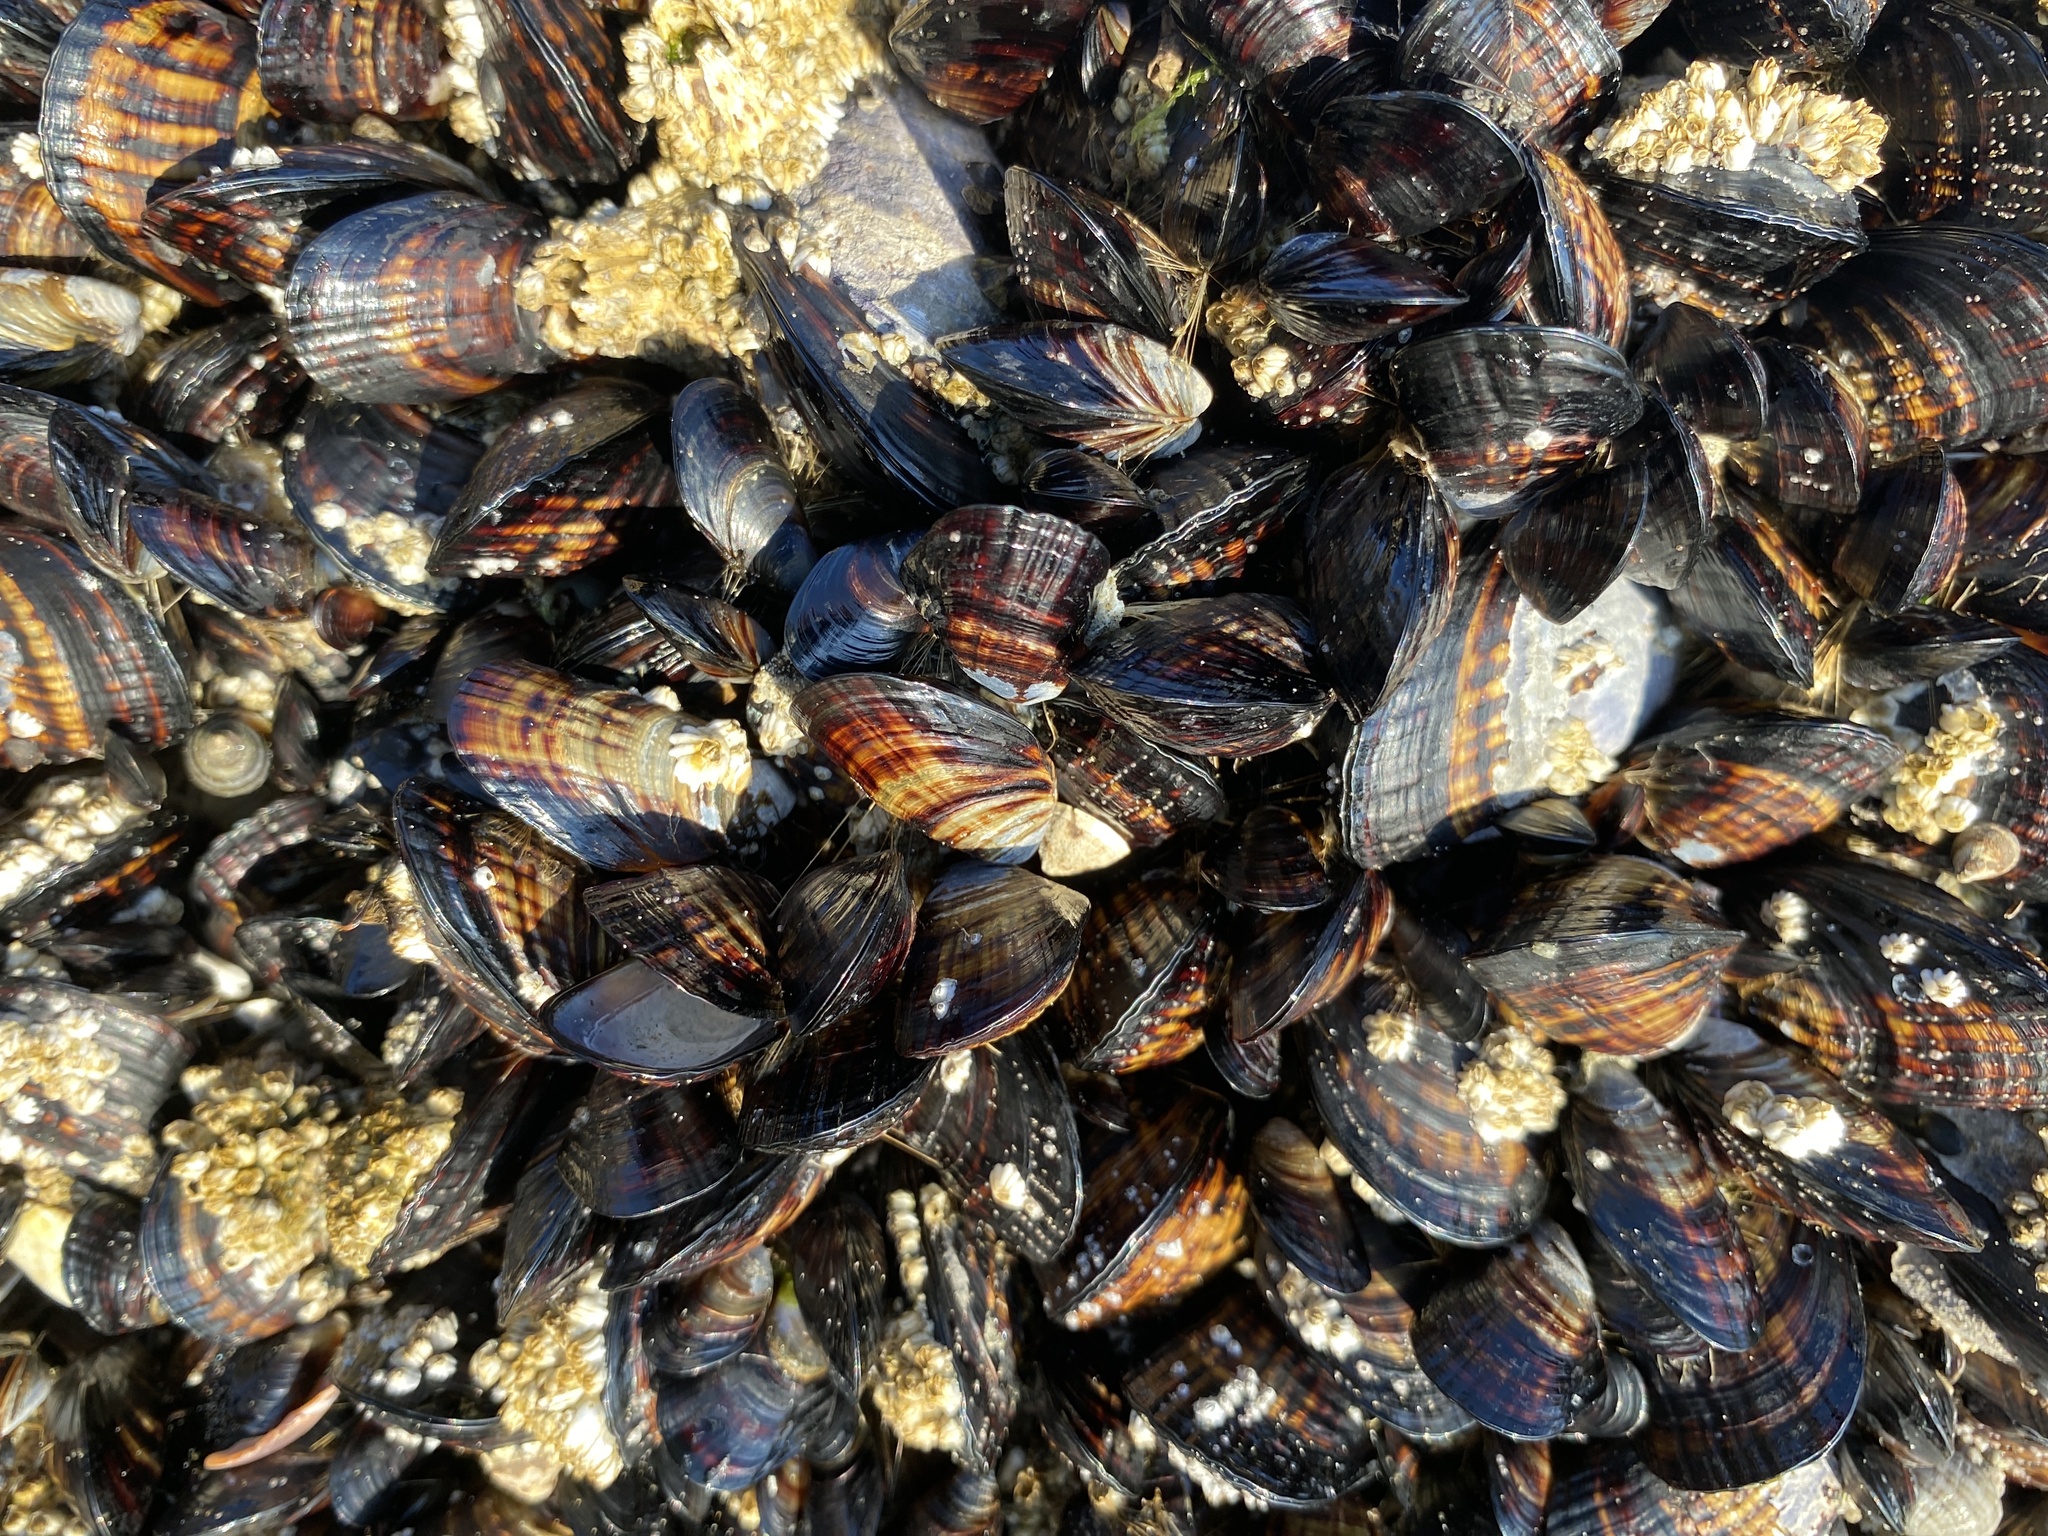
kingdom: Animalia
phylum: Mollusca
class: Bivalvia
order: Mytilida
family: Mytilidae
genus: Mytilus
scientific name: Mytilus californianus
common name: California mussel
